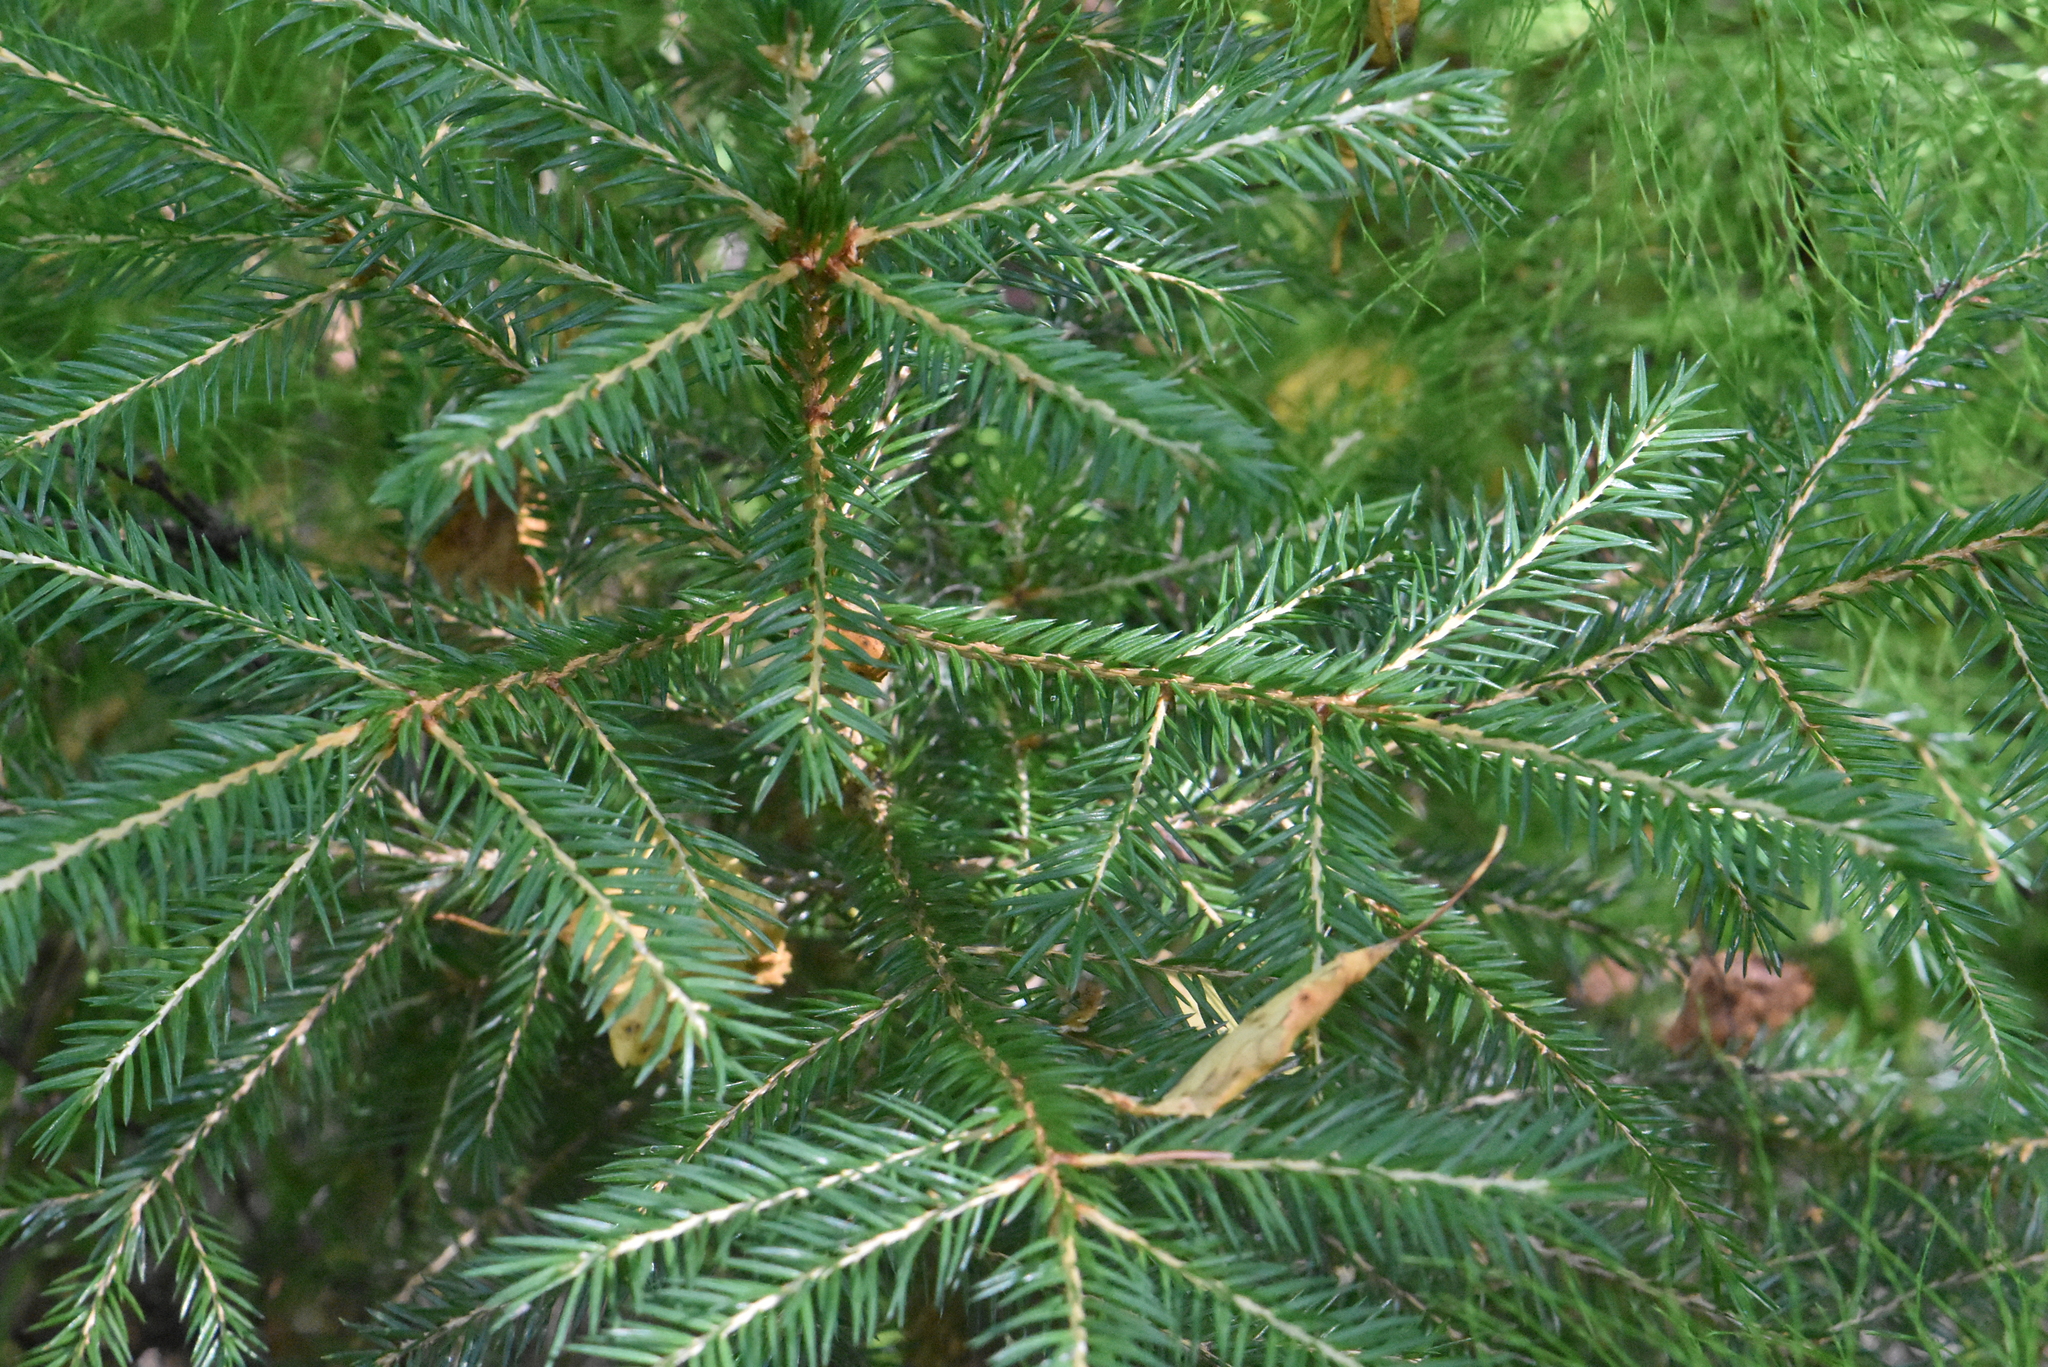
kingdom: Plantae
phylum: Tracheophyta
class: Pinopsida
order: Pinales
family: Pinaceae
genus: Picea
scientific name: Picea abies
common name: Norway spruce
